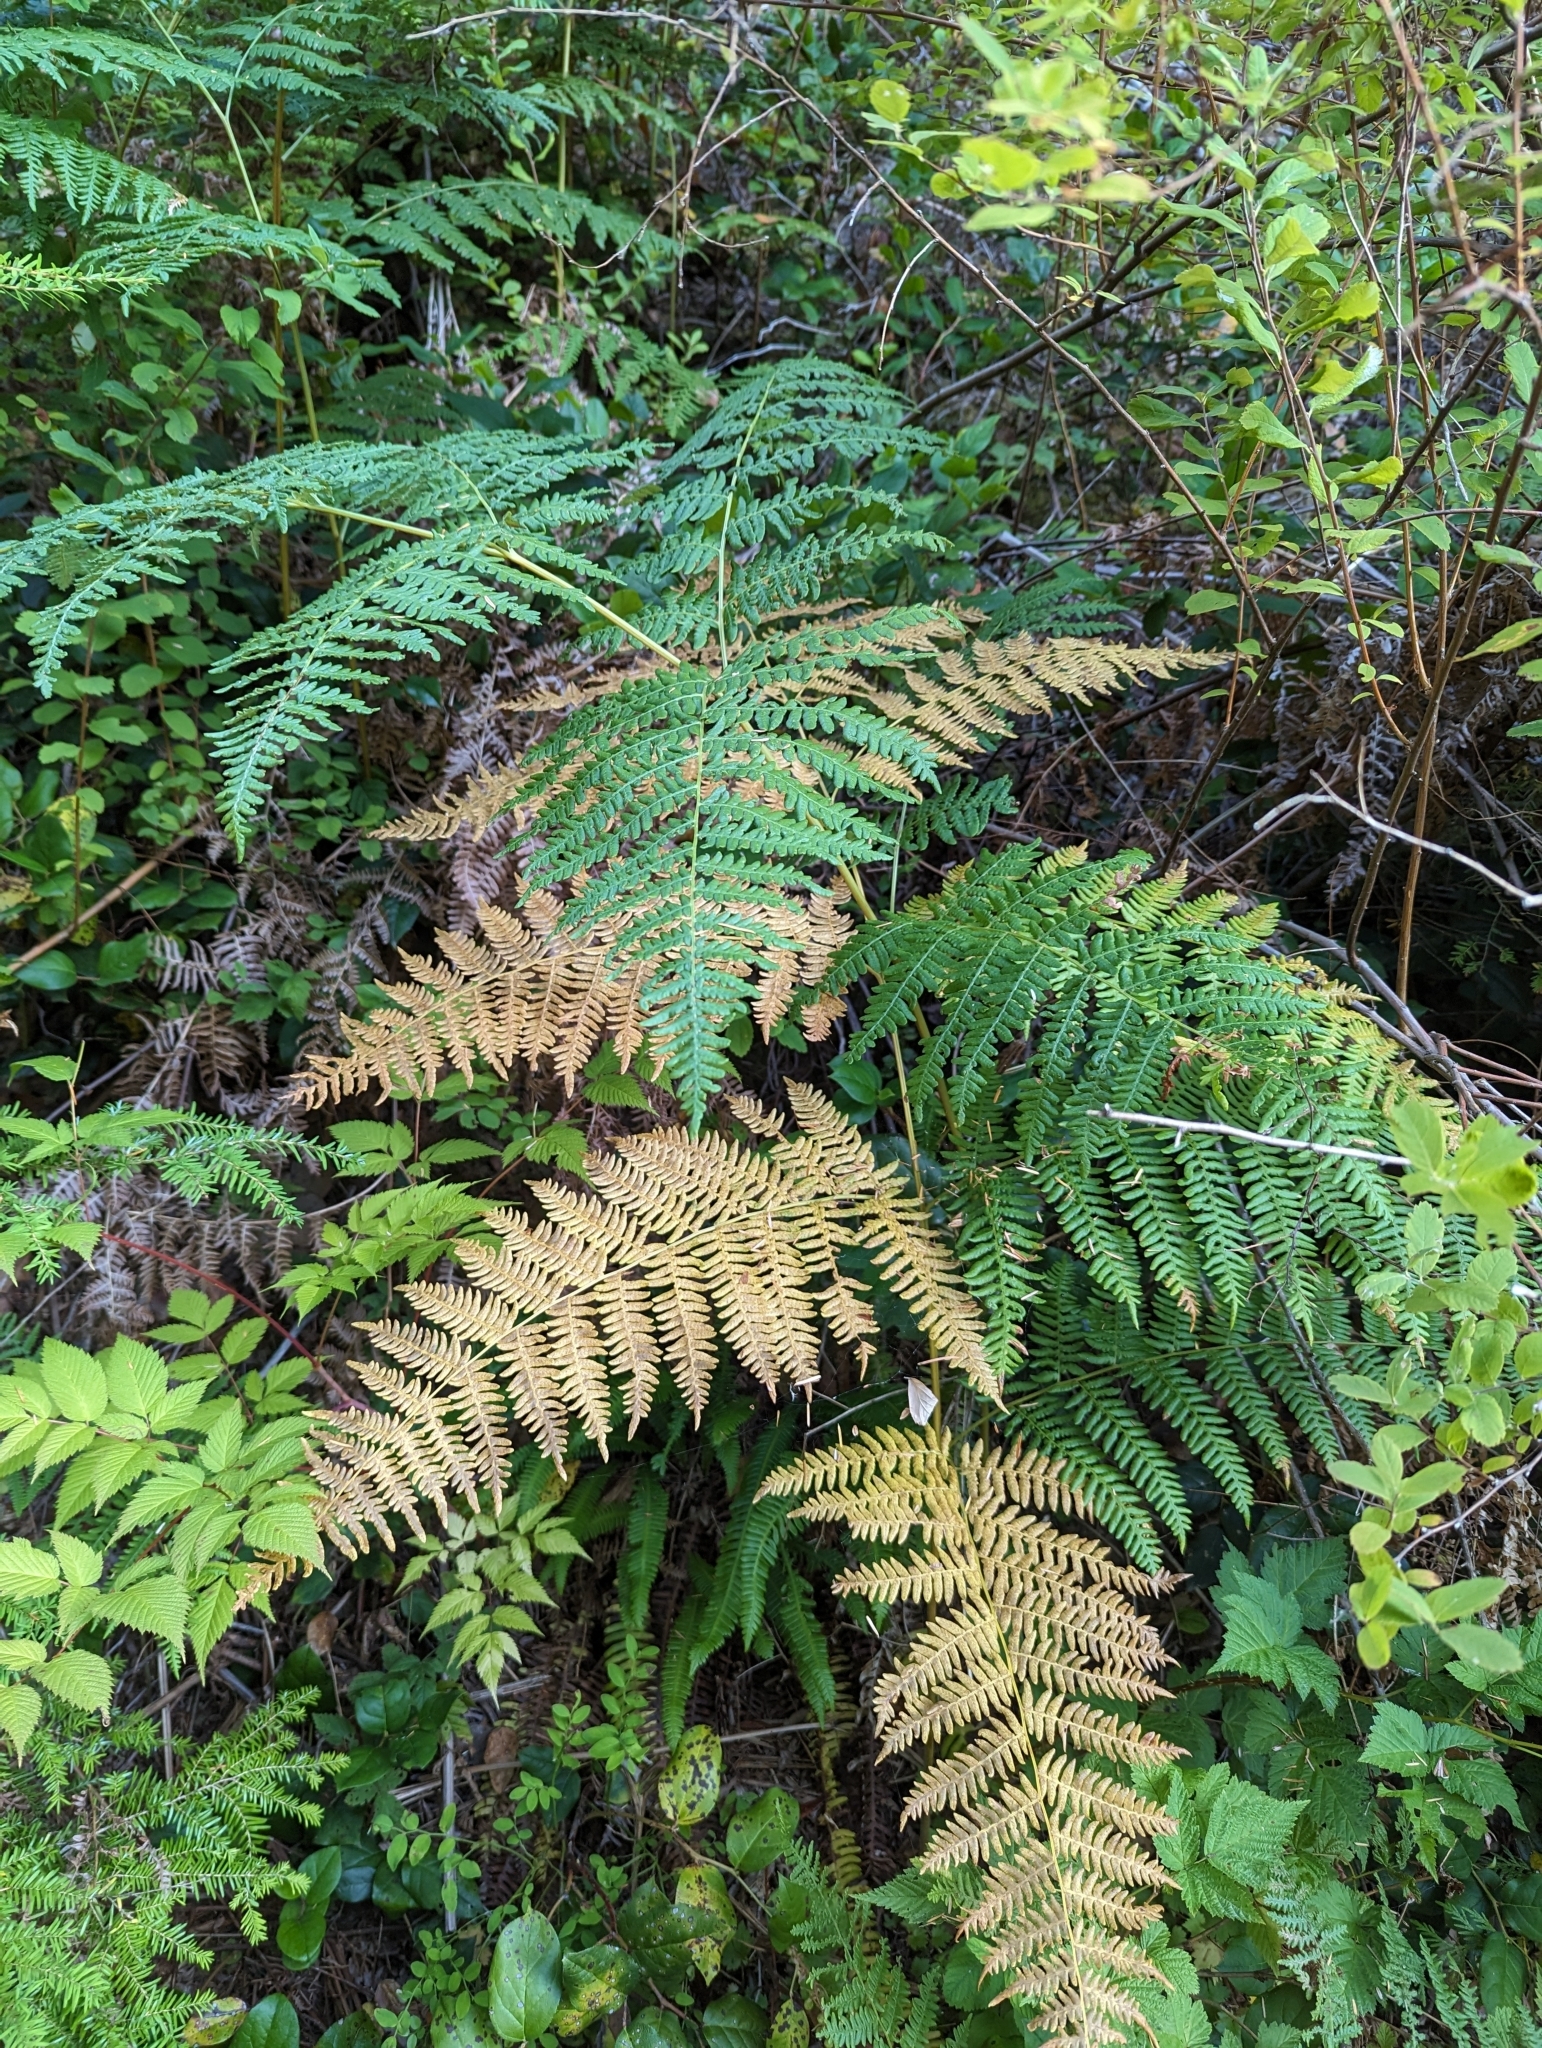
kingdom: Plantae
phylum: Tracheophyta
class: Polypodiopsida
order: Polypodiales
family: Dennstaedtiaceae
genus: Pteridium
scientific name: Pteridium aquilinum
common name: Bracken
